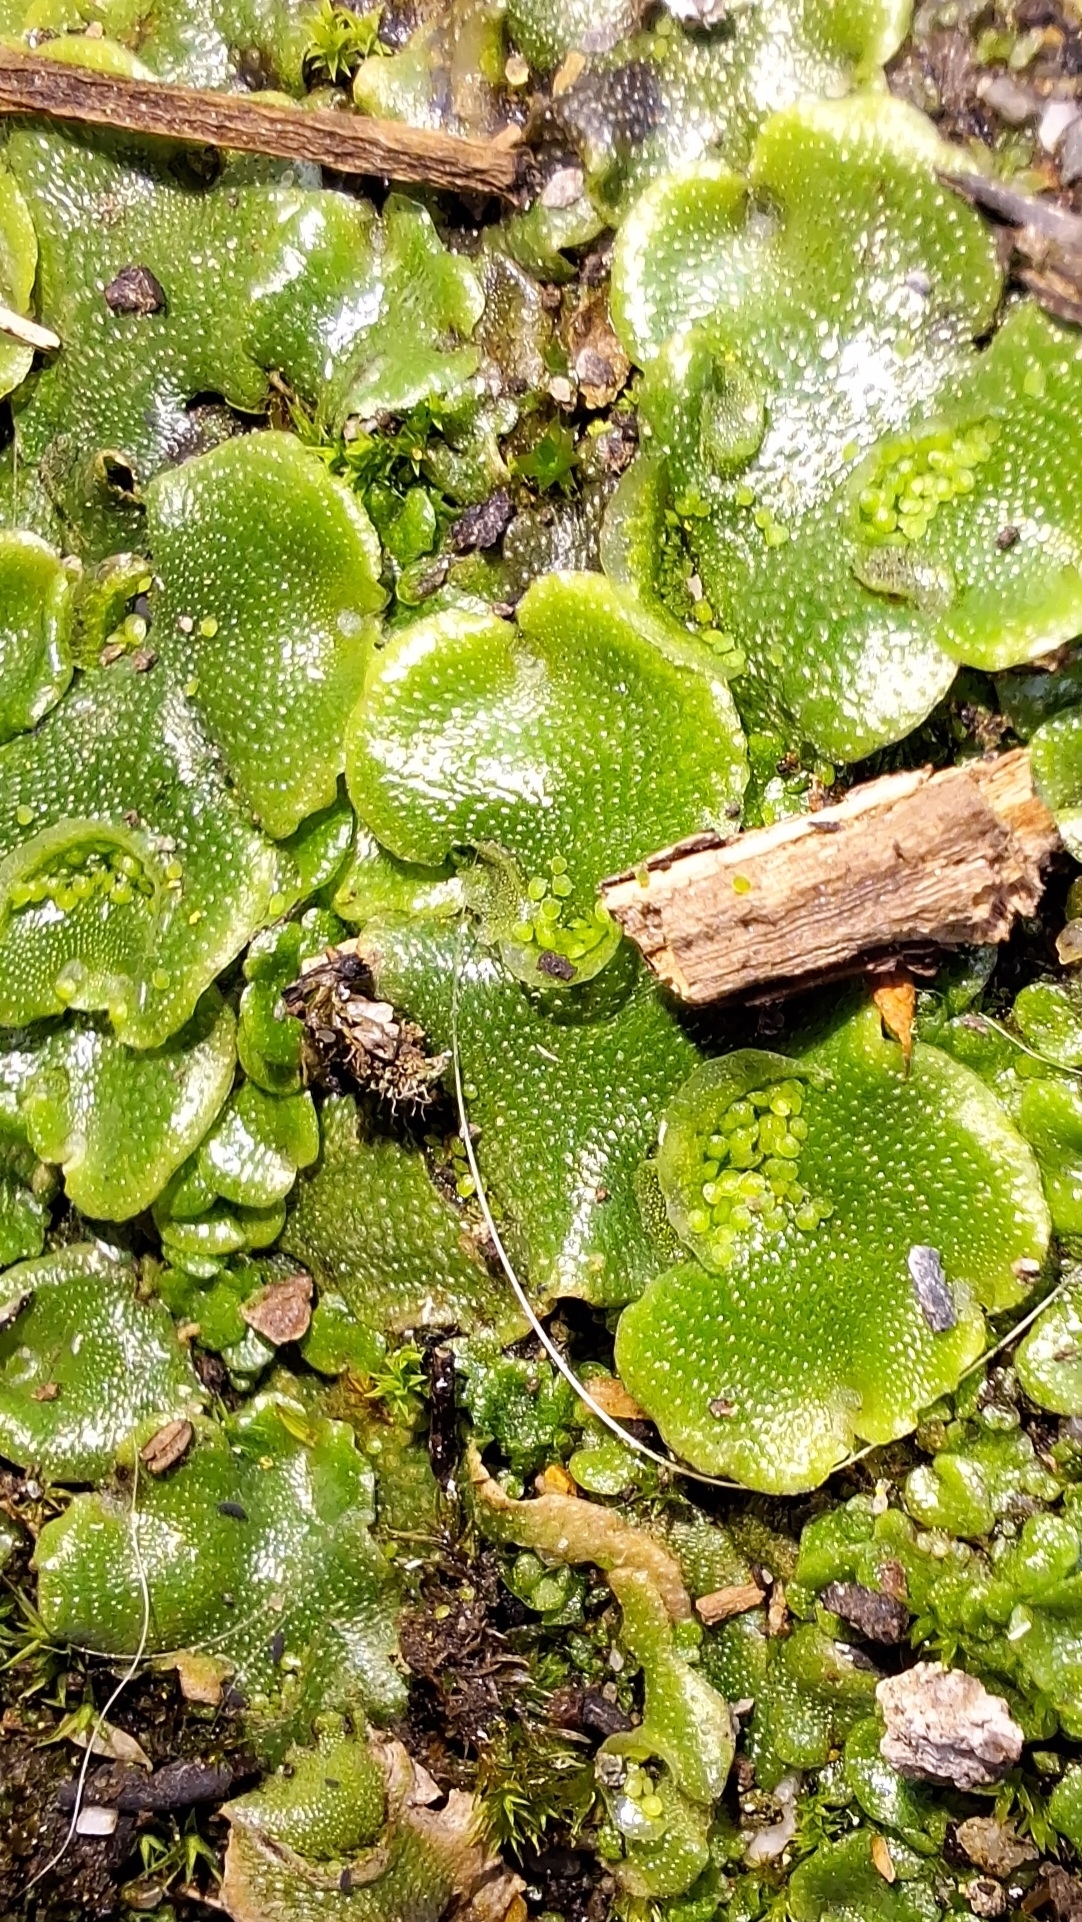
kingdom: Plantae
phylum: Marchantiophyta
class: Marchantiopsida
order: Lunulariales
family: Lunulariaceae
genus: Lunularia
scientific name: Lunularia cruciata
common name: Crescent-cup liverwort
